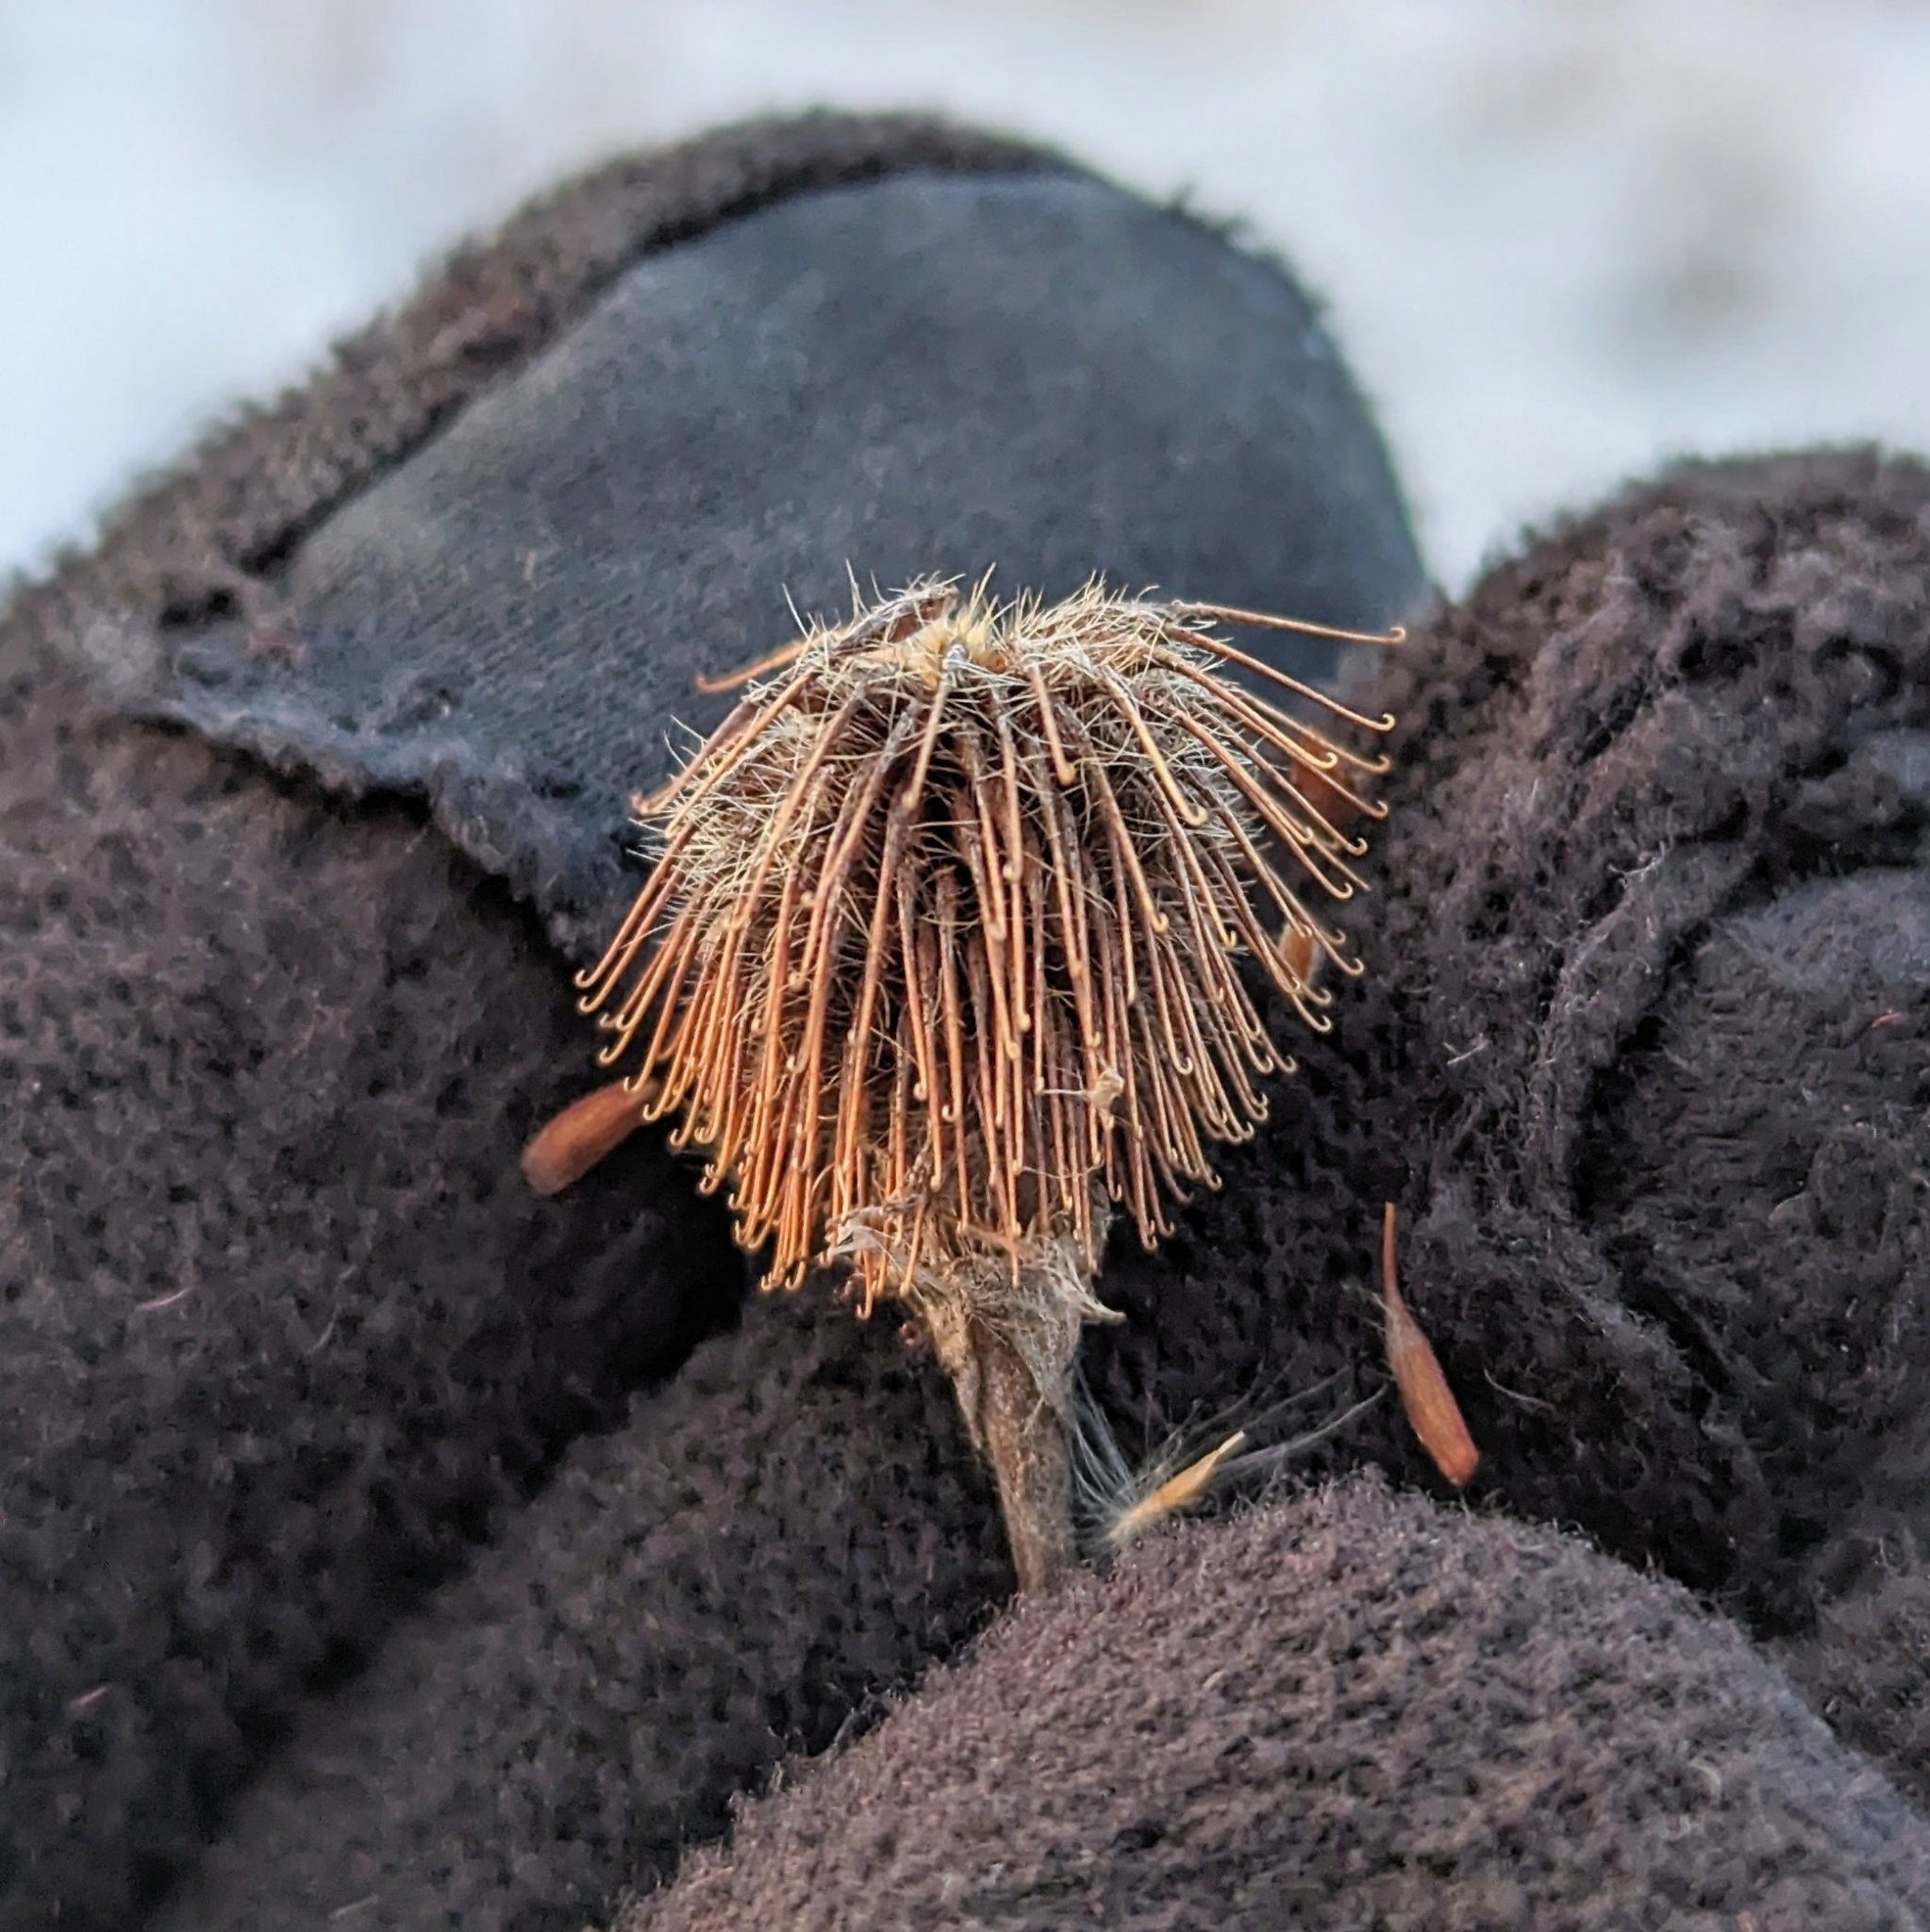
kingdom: Plantae
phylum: Tracheophyta
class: Magnoliopsida
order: Rosales
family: Rosaceae
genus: Geum
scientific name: Geum
